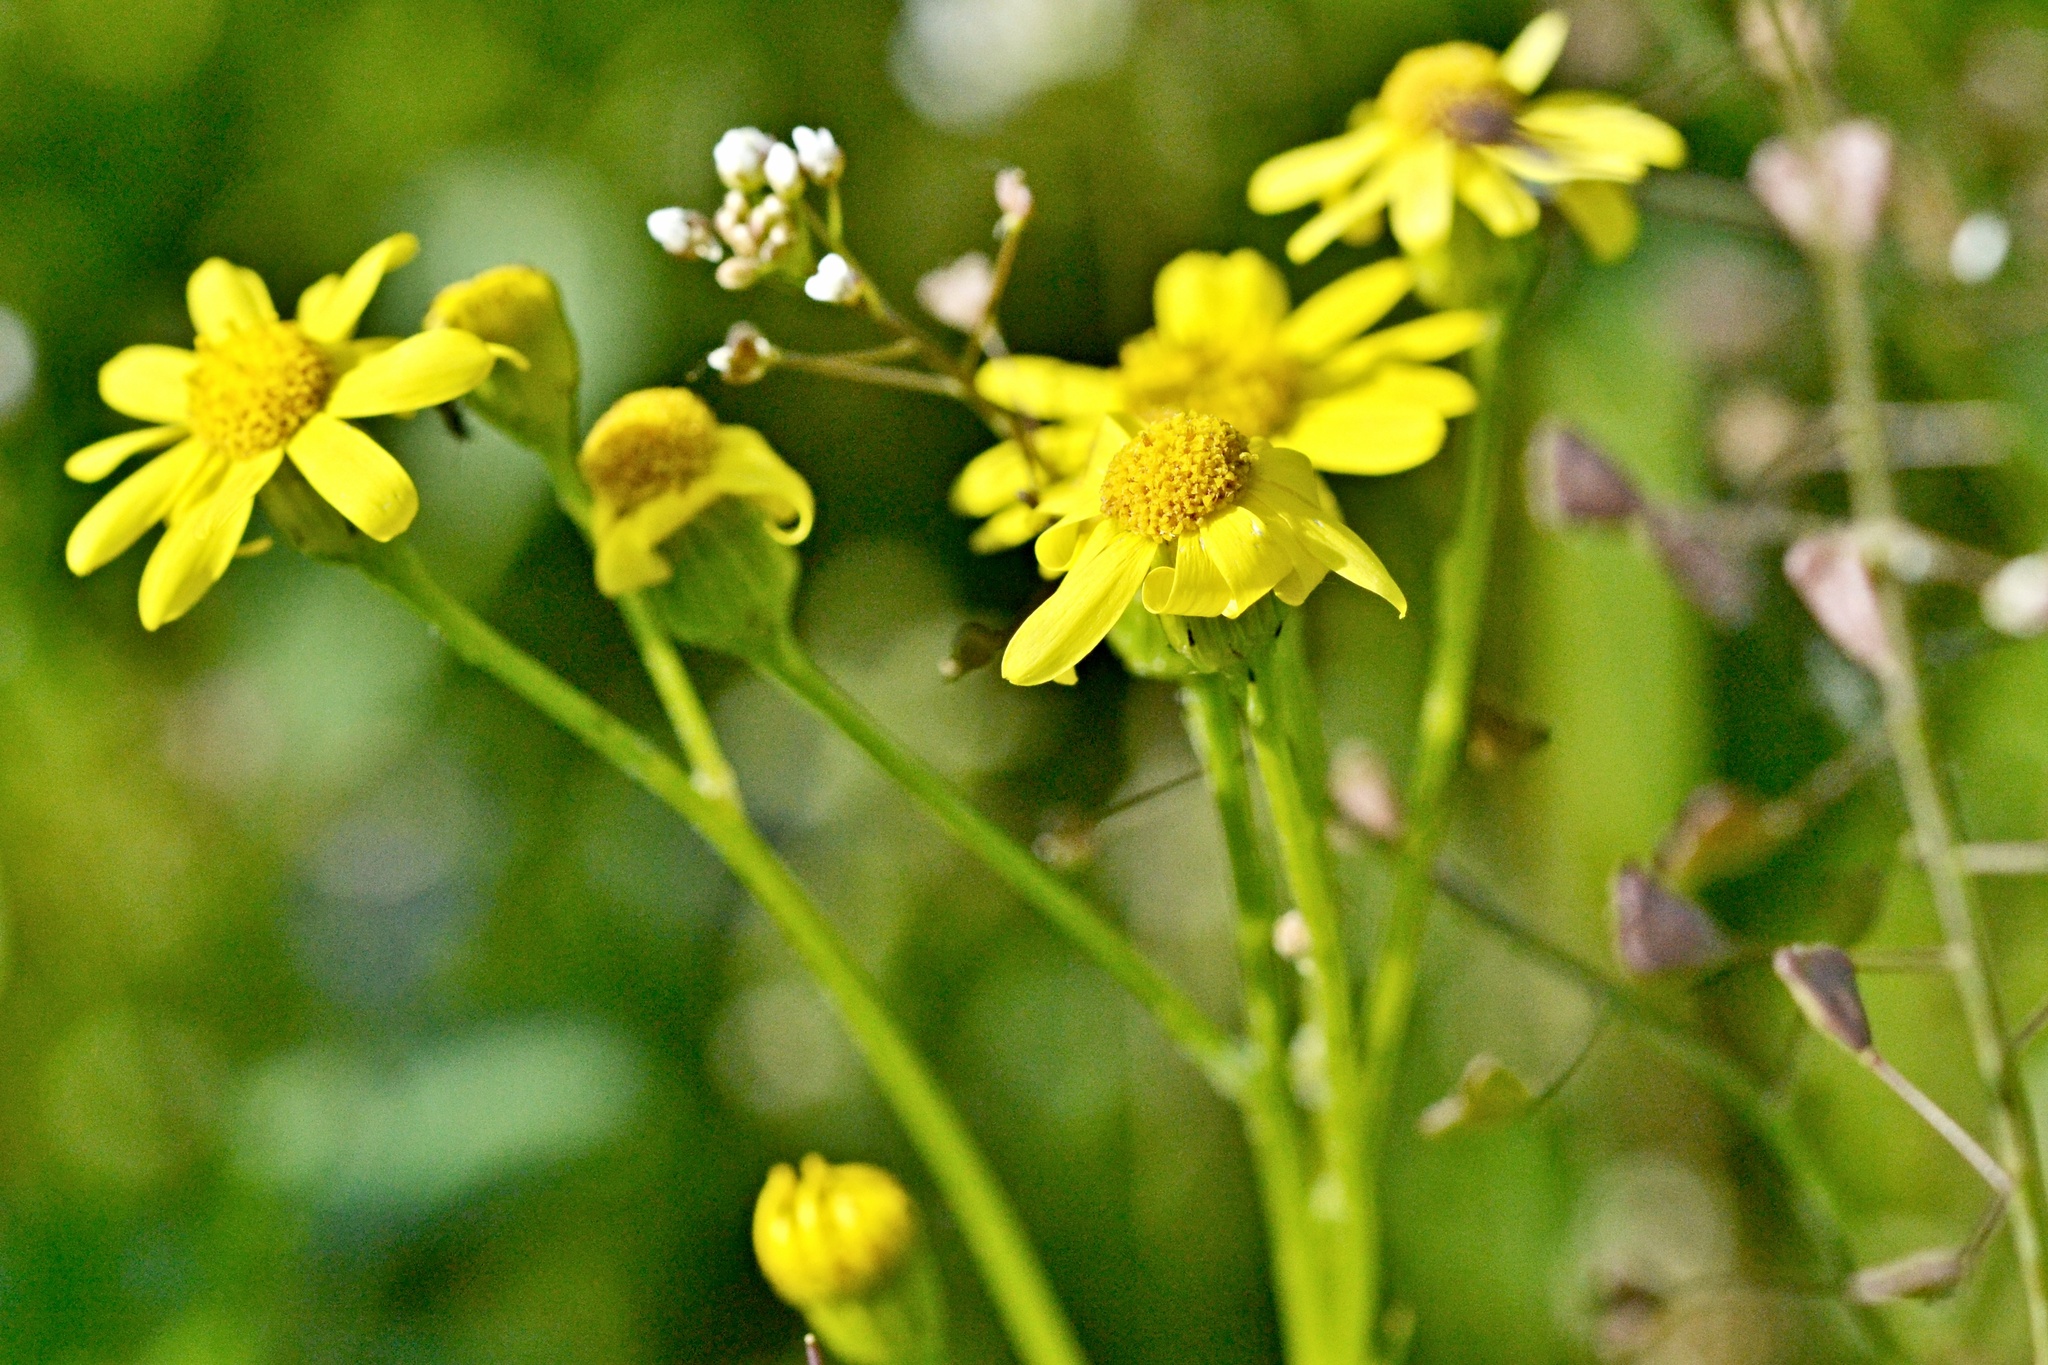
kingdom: Plantae
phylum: Tracheophyta
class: Magnoliopsida
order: Asterales
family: Asteraceae
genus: Senecio
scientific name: Senecio vernalis
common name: Eastern groundsel
